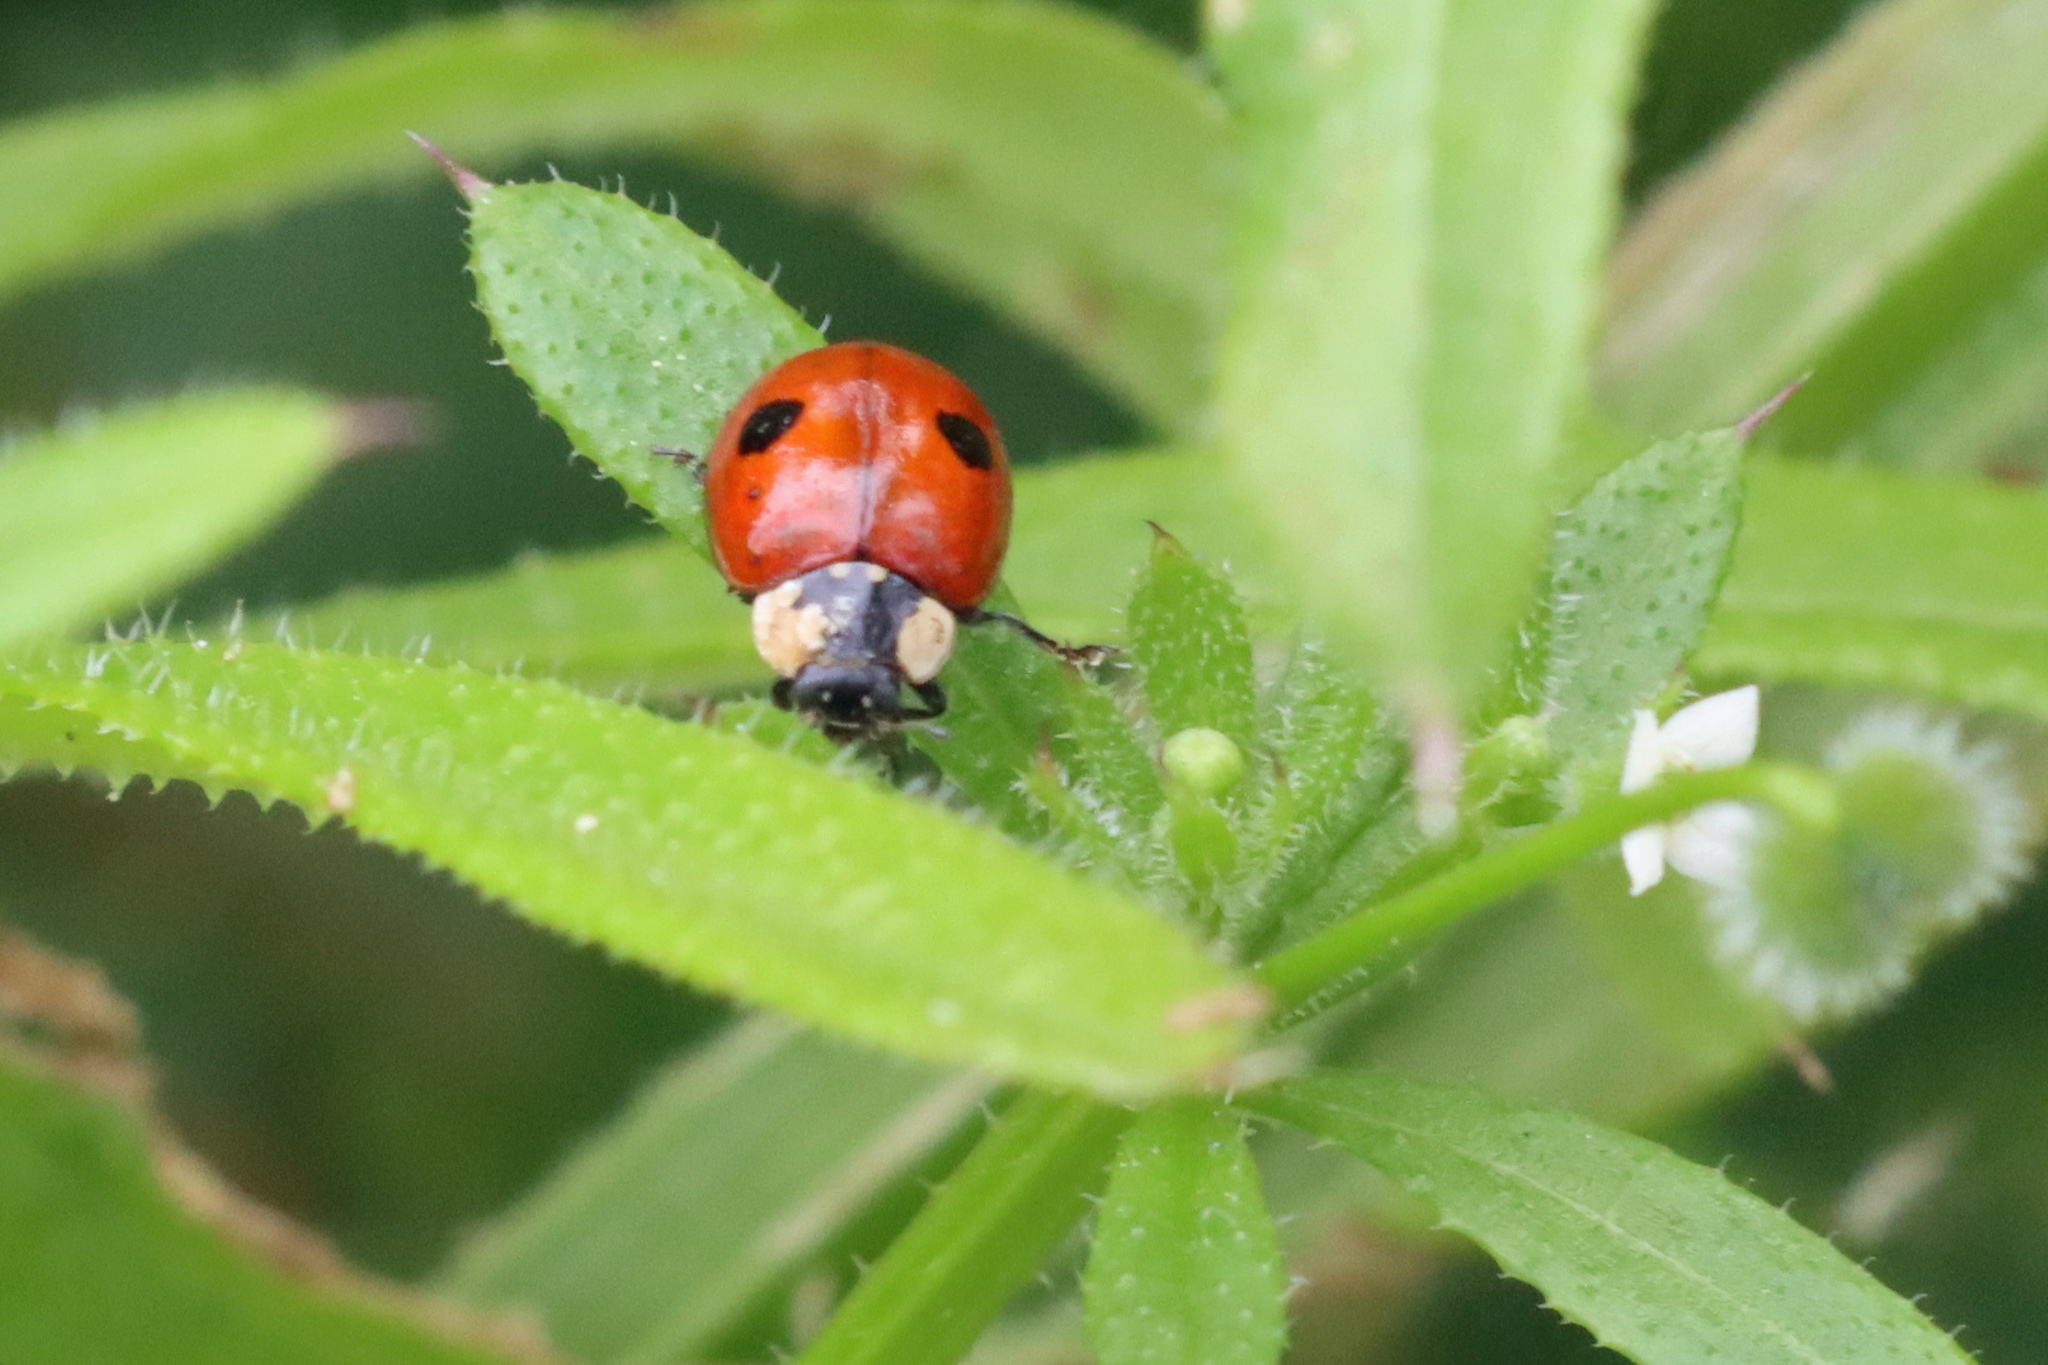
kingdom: Animalia
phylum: Arthropoda
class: Insecta
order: Coleoptera
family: Coccinellidae
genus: Adalia
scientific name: Adalia bipunctata
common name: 2-spot ladybird
